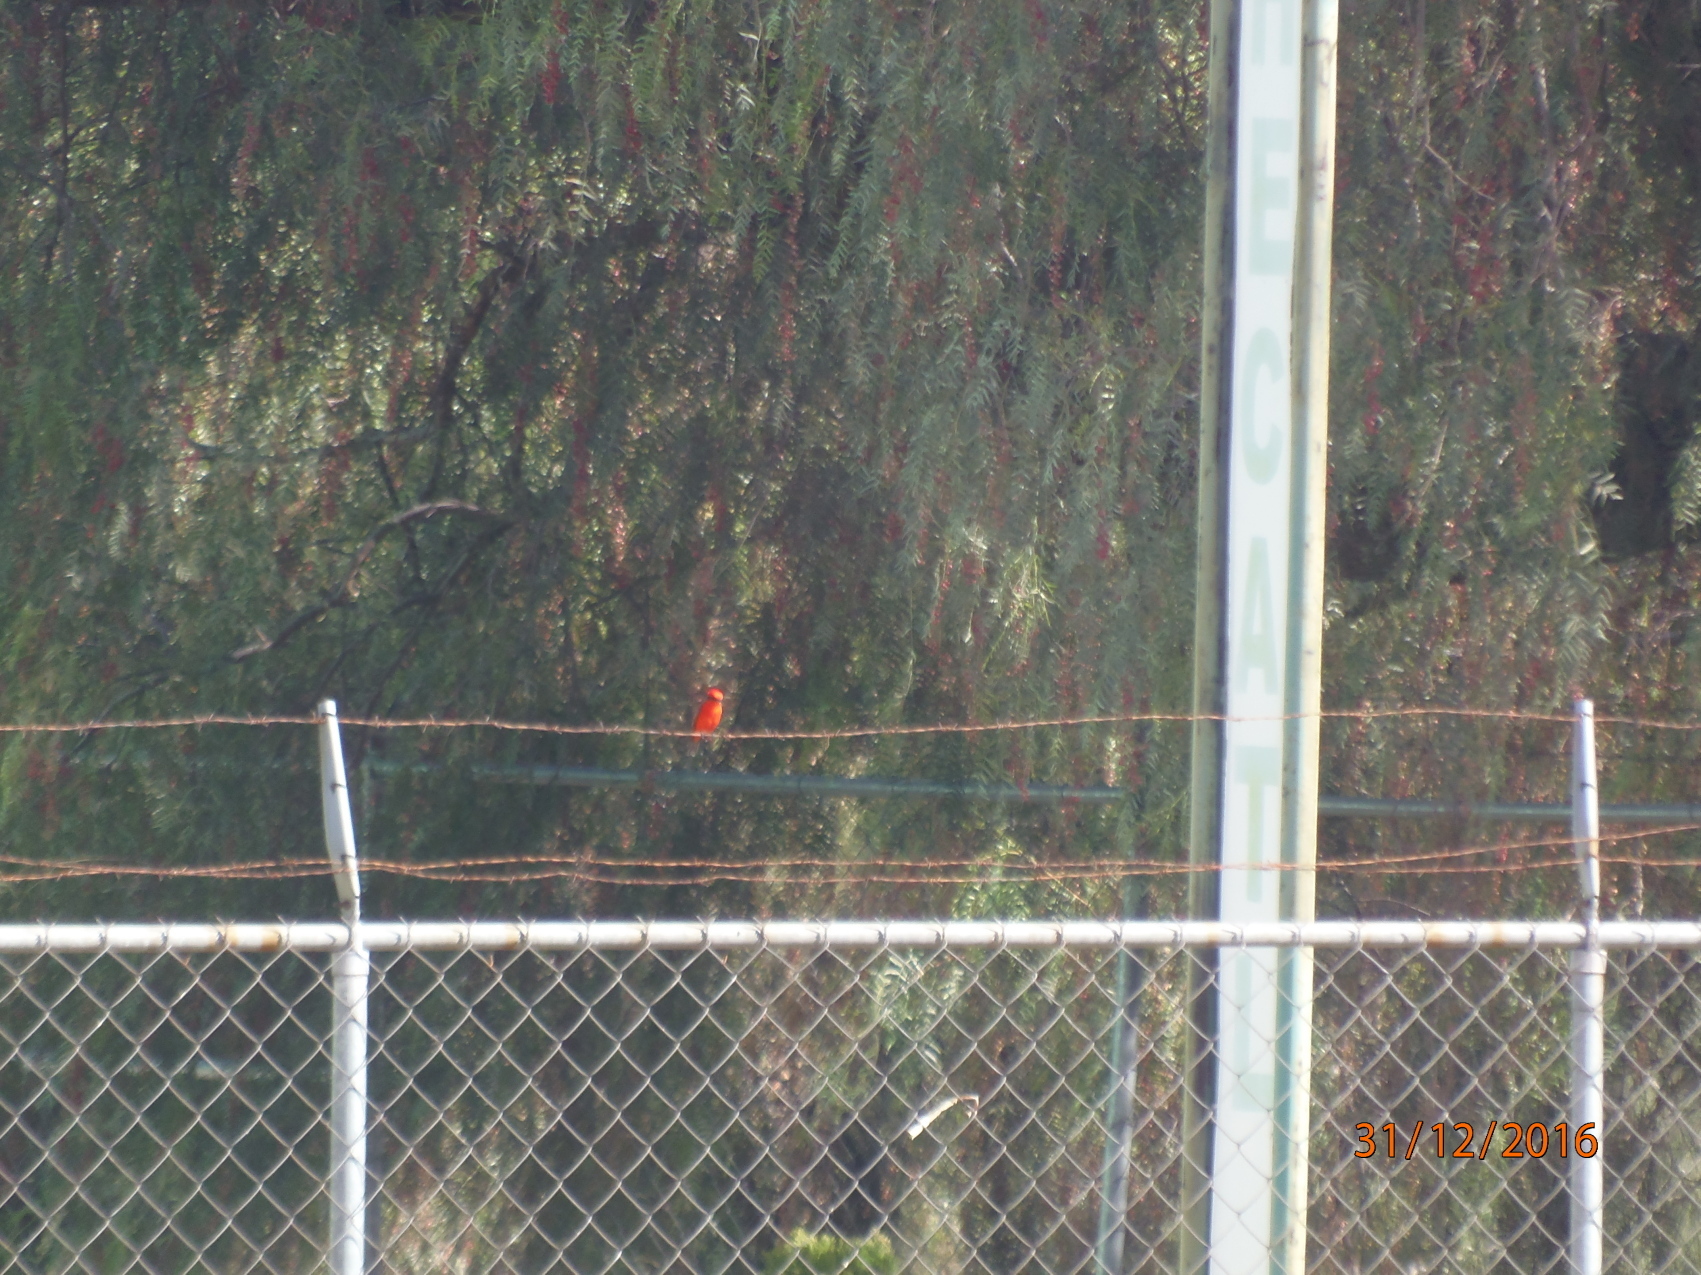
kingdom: Animalia
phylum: Chordata
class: Aves
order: Passeriformes
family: Tyrannidae
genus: Pyrocephalus
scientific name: Pyrocephalus rubinus
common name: Vermilion flycatcher
